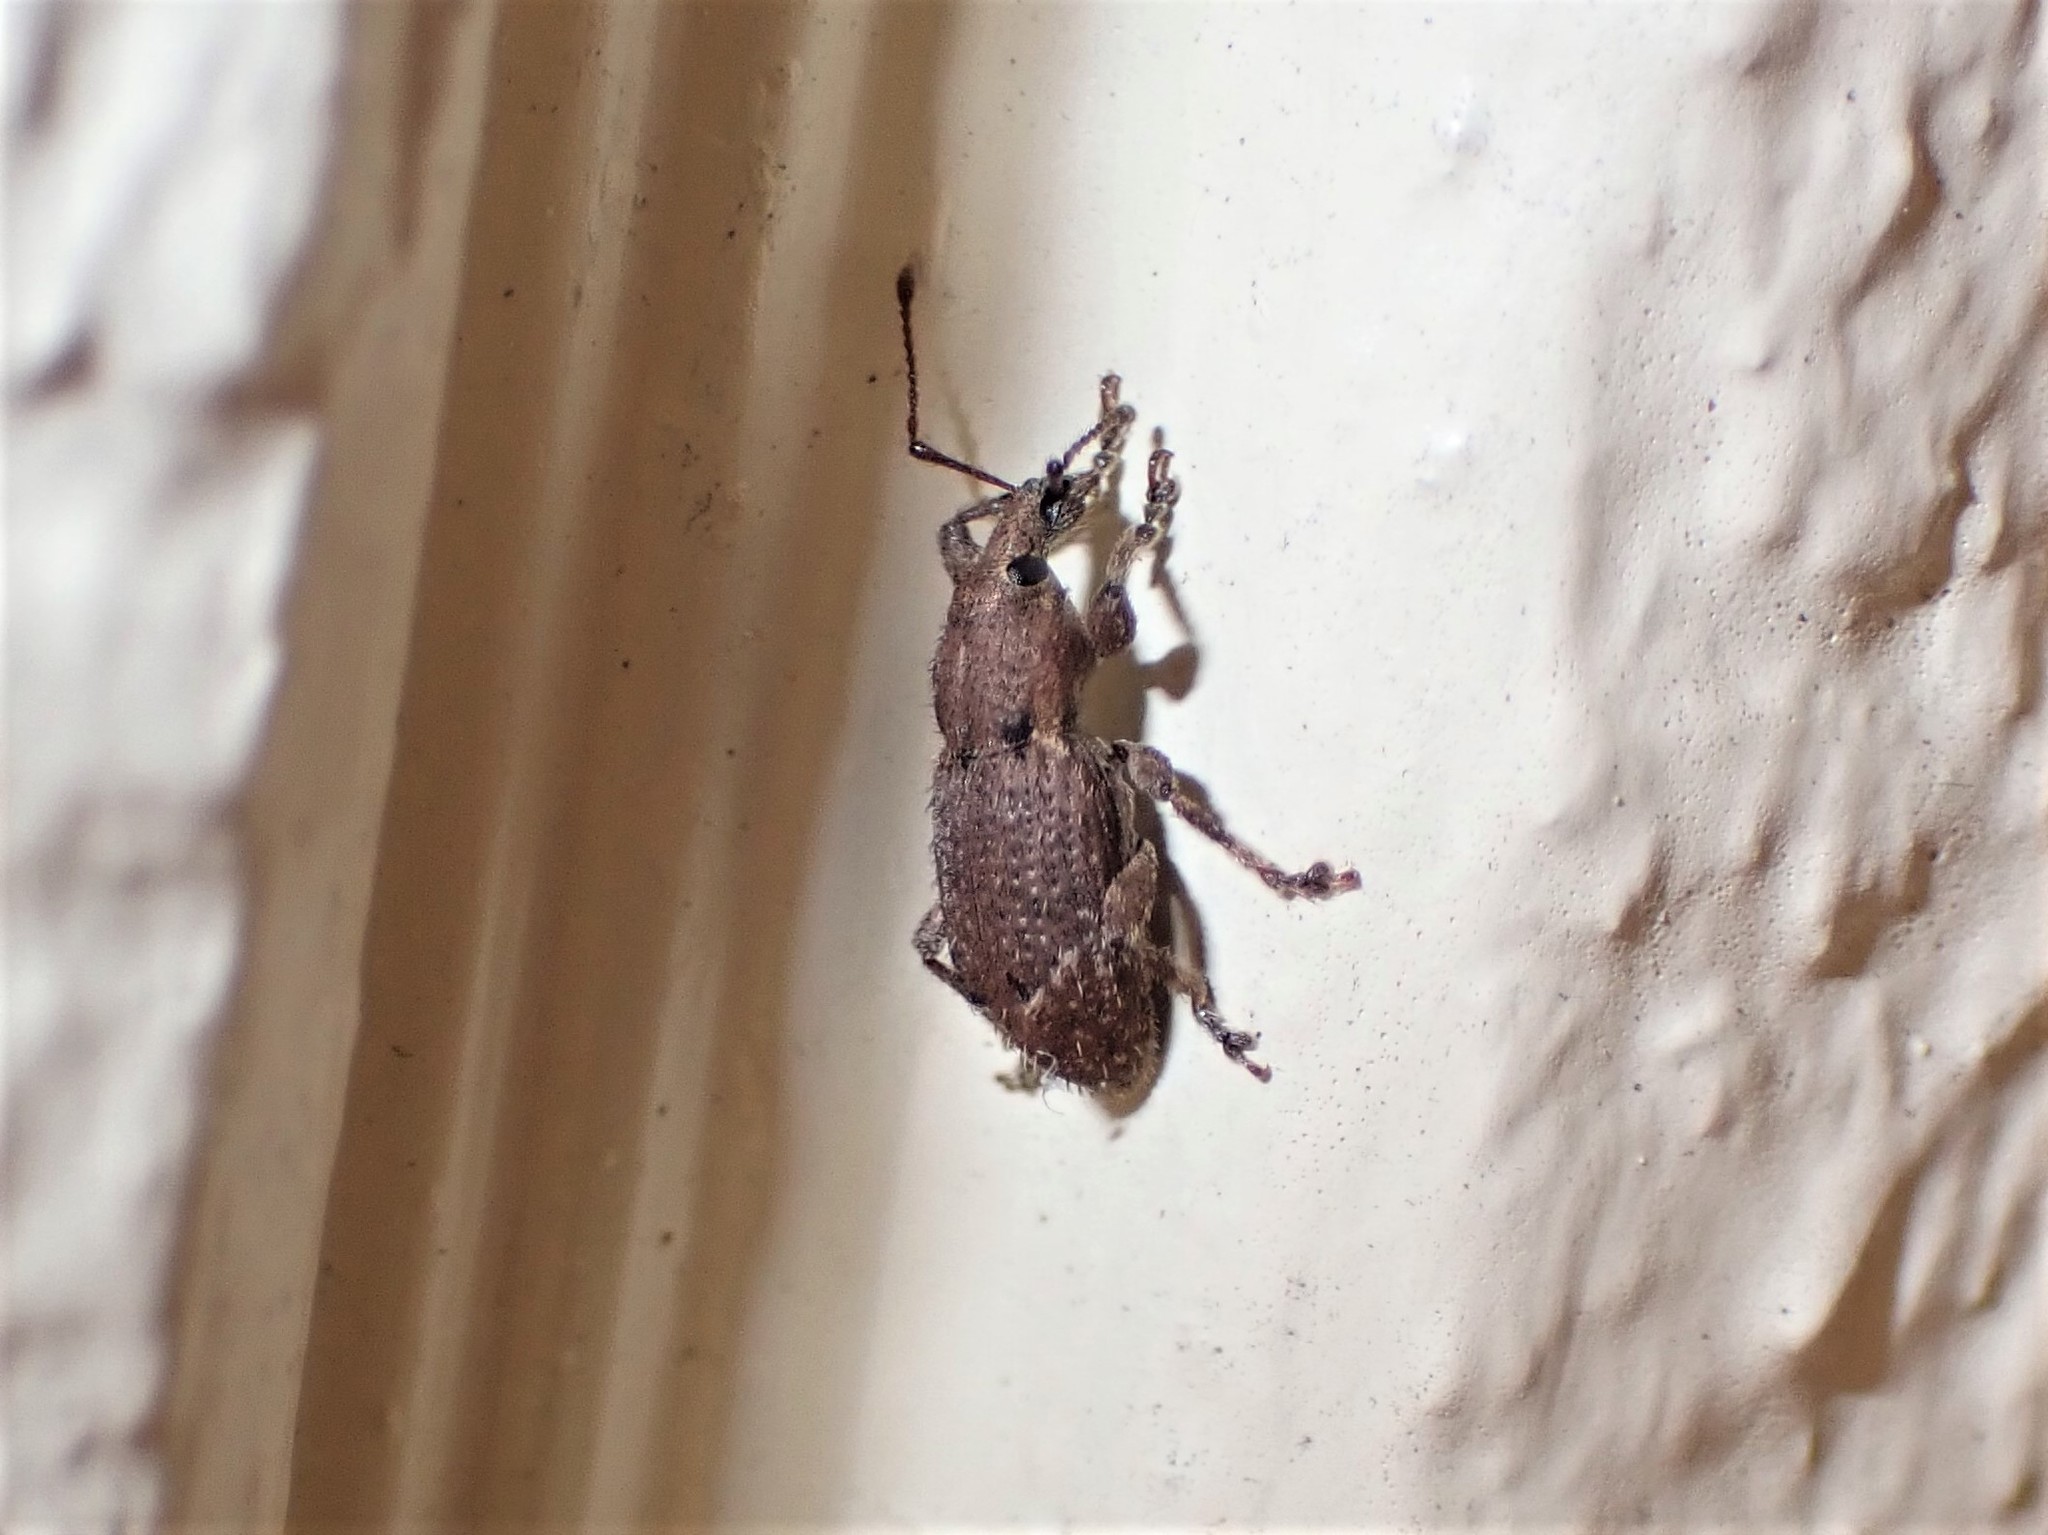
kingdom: Animalia
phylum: Arthropoda
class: Insecta
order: Coleoptera
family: Curculionidae
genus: Chalepistes
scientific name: Chalepistes compressus
